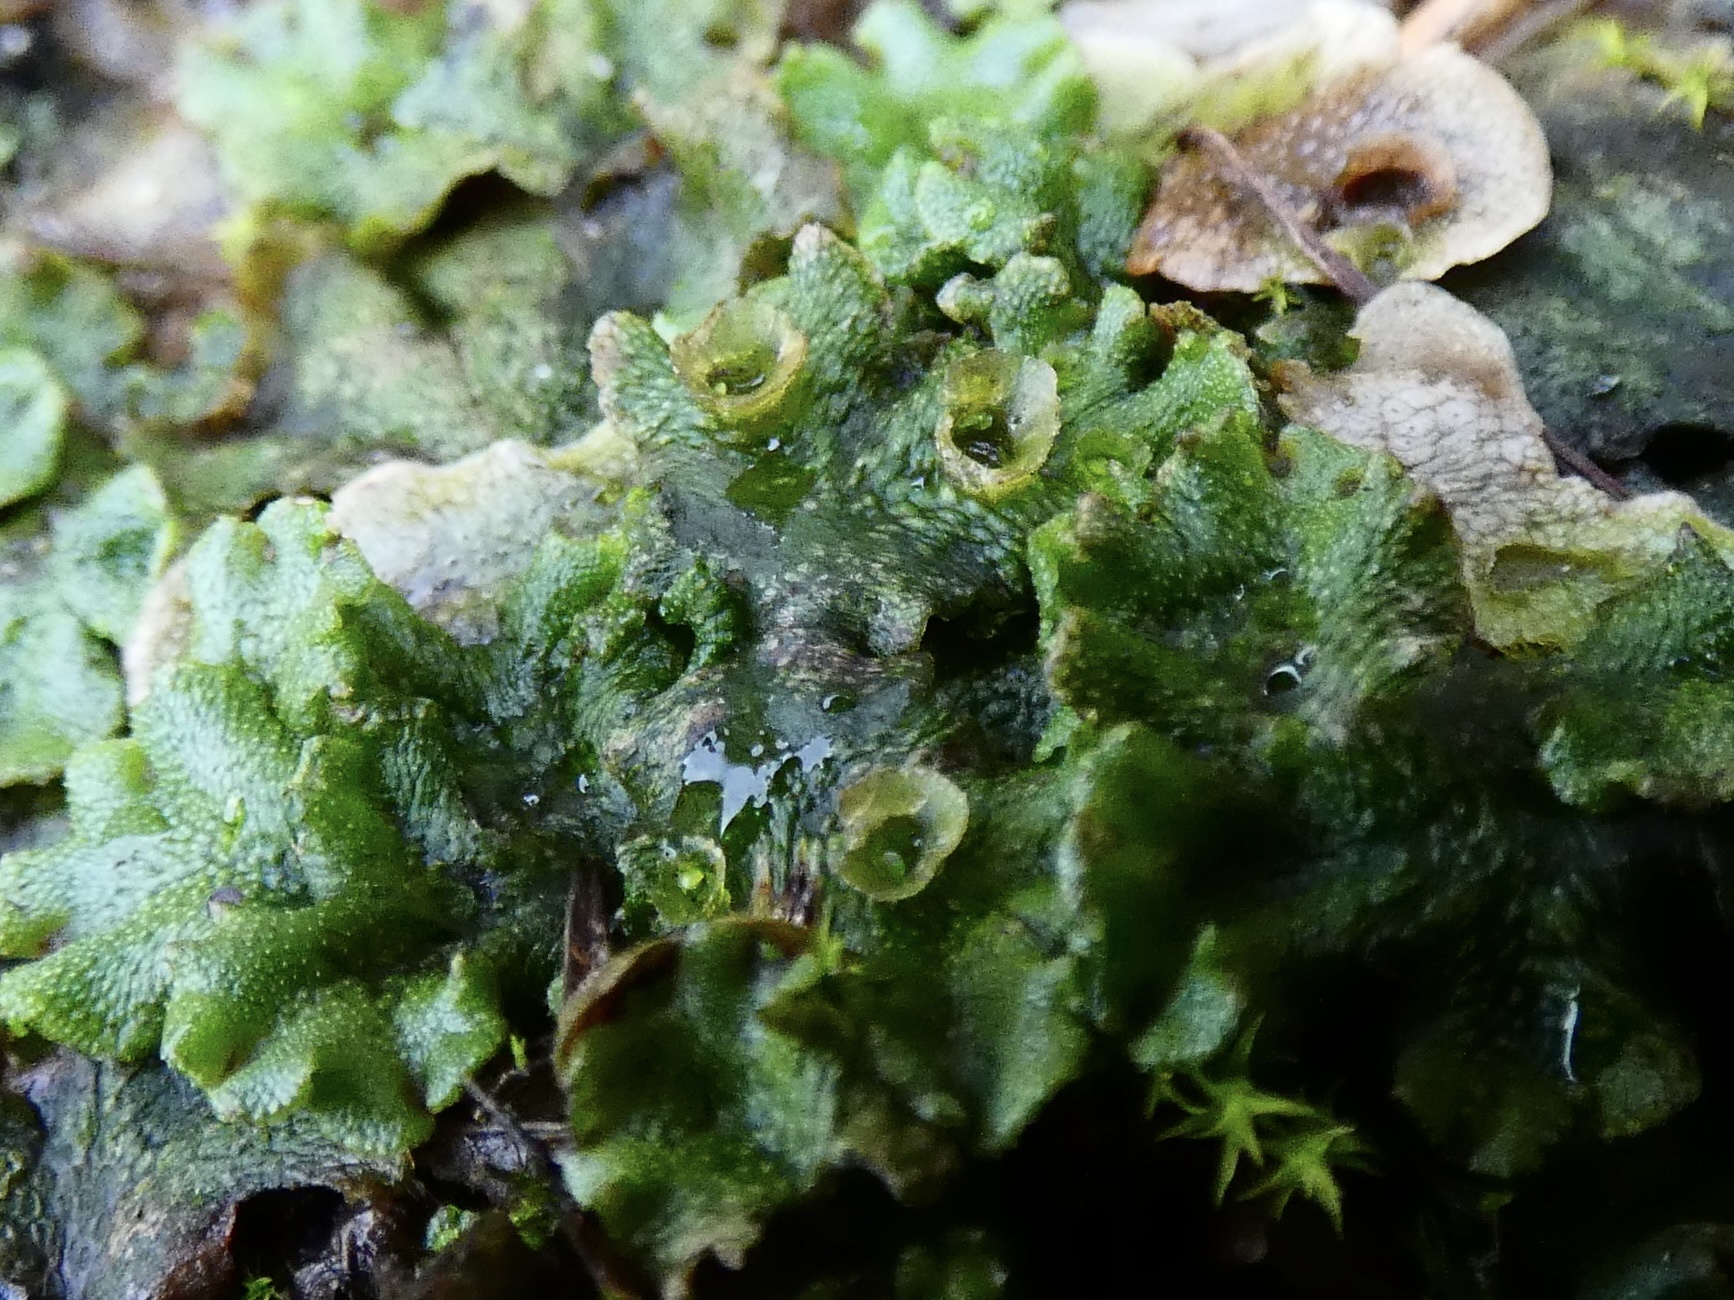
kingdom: Plantae
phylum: Marchantiophyta
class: Marchantiopsida
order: Marchantiales
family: Marchantiaceae
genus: Marchantia
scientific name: Marchantia polymorpha
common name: Common liverwort
